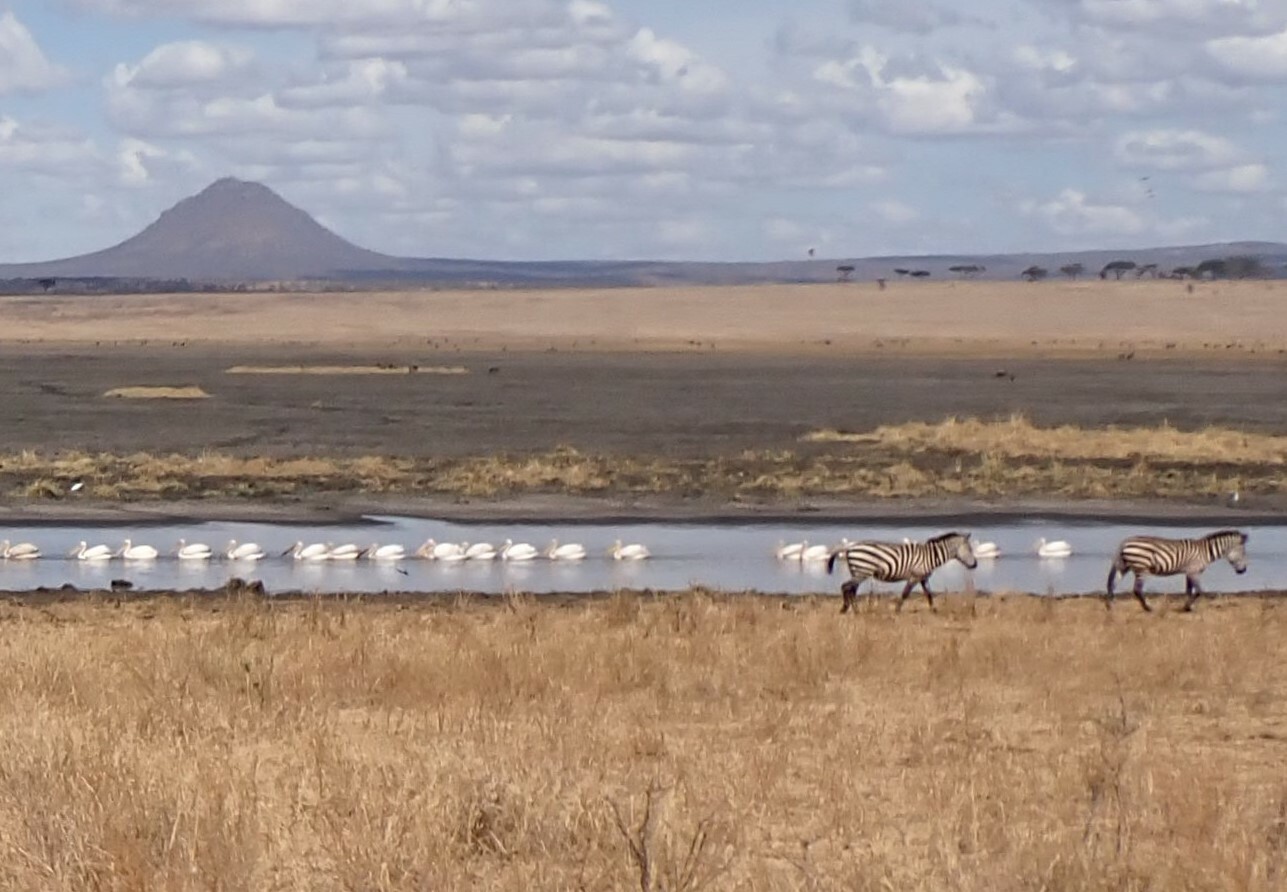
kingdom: Animalia
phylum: Chordata
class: Mammalia
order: Perissodactyla
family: Equidae
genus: Equus
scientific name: Equus quagga
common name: Plains zebra
